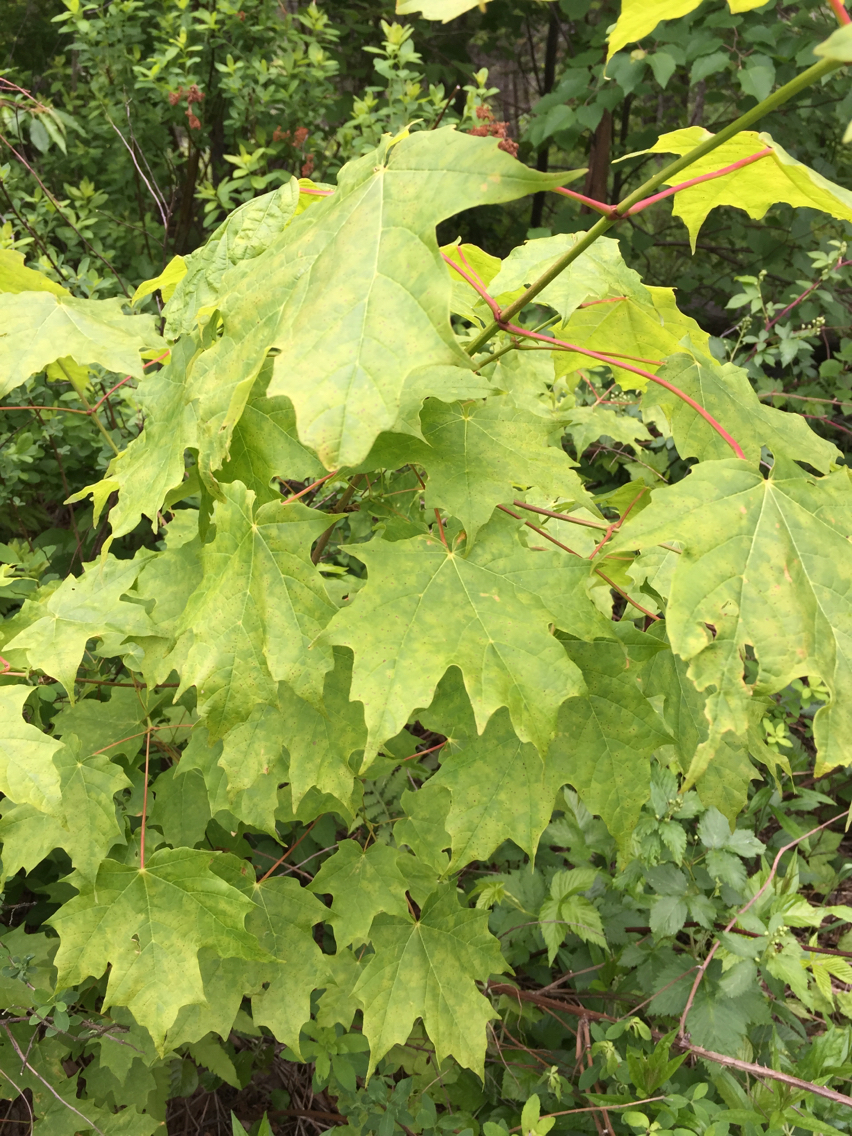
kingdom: Plantae
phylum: Tracheophyta
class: Magnoliopsida
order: Sapindales
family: Sapindaceae
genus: Acer
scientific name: Acer saccharum
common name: Sugar maple
